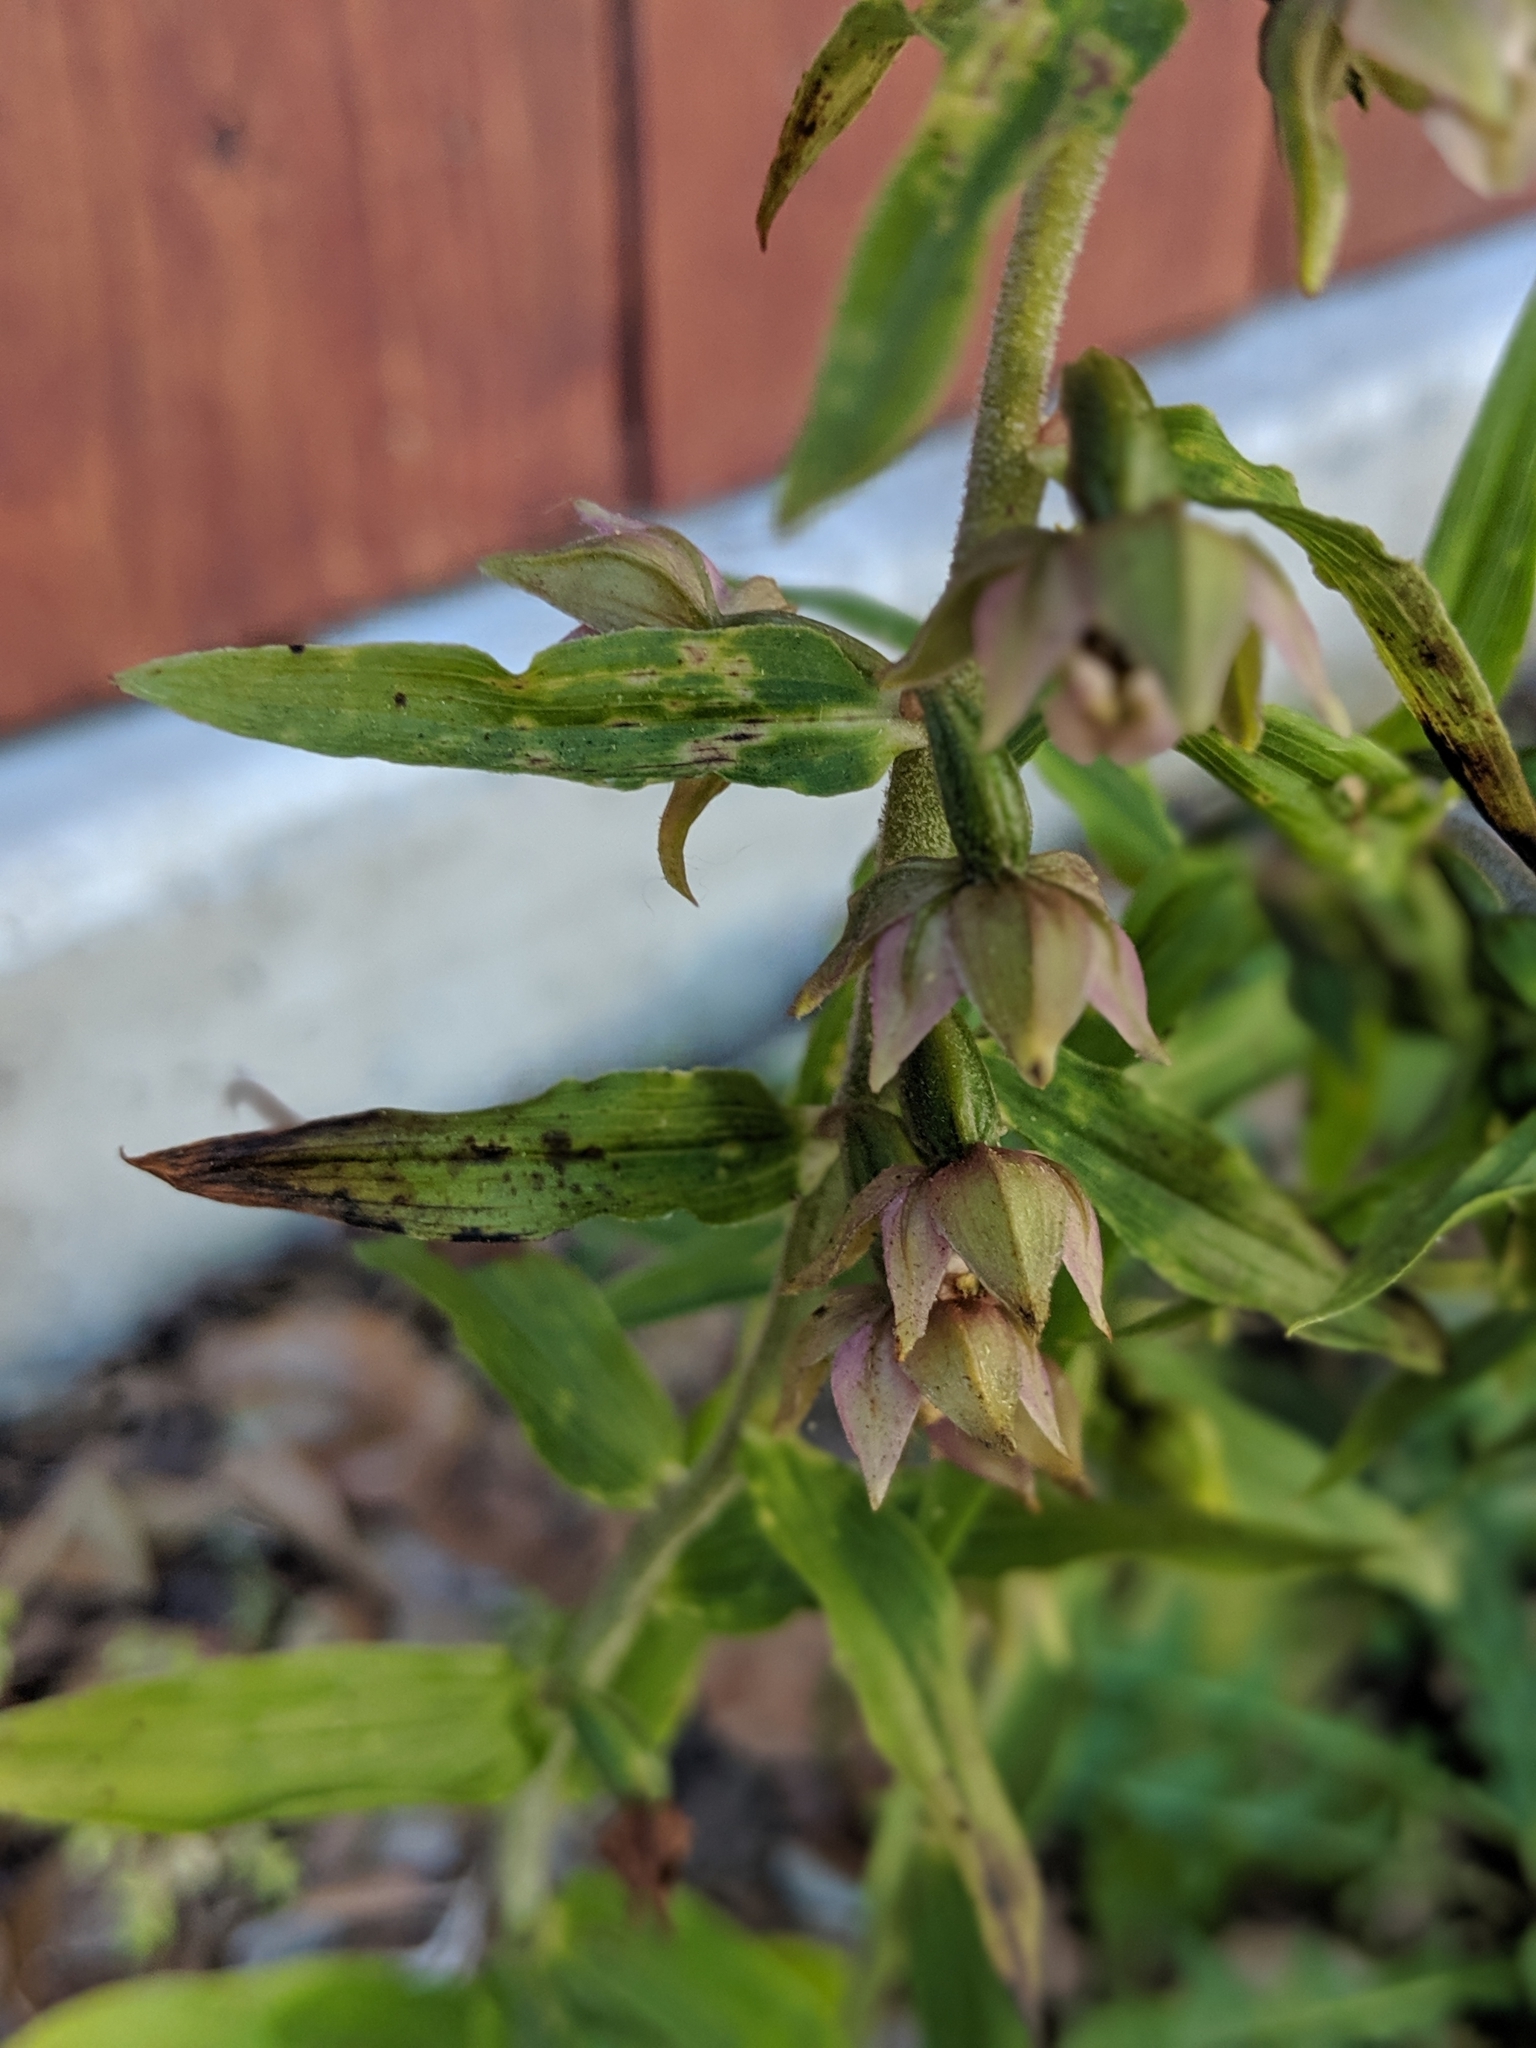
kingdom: Plantae
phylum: Tracheophyta
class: Liliopsida
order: Asparagales
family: Orchidaceae
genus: Epipactis
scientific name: Epipactis helleborine
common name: Broad-leaved helleborine
